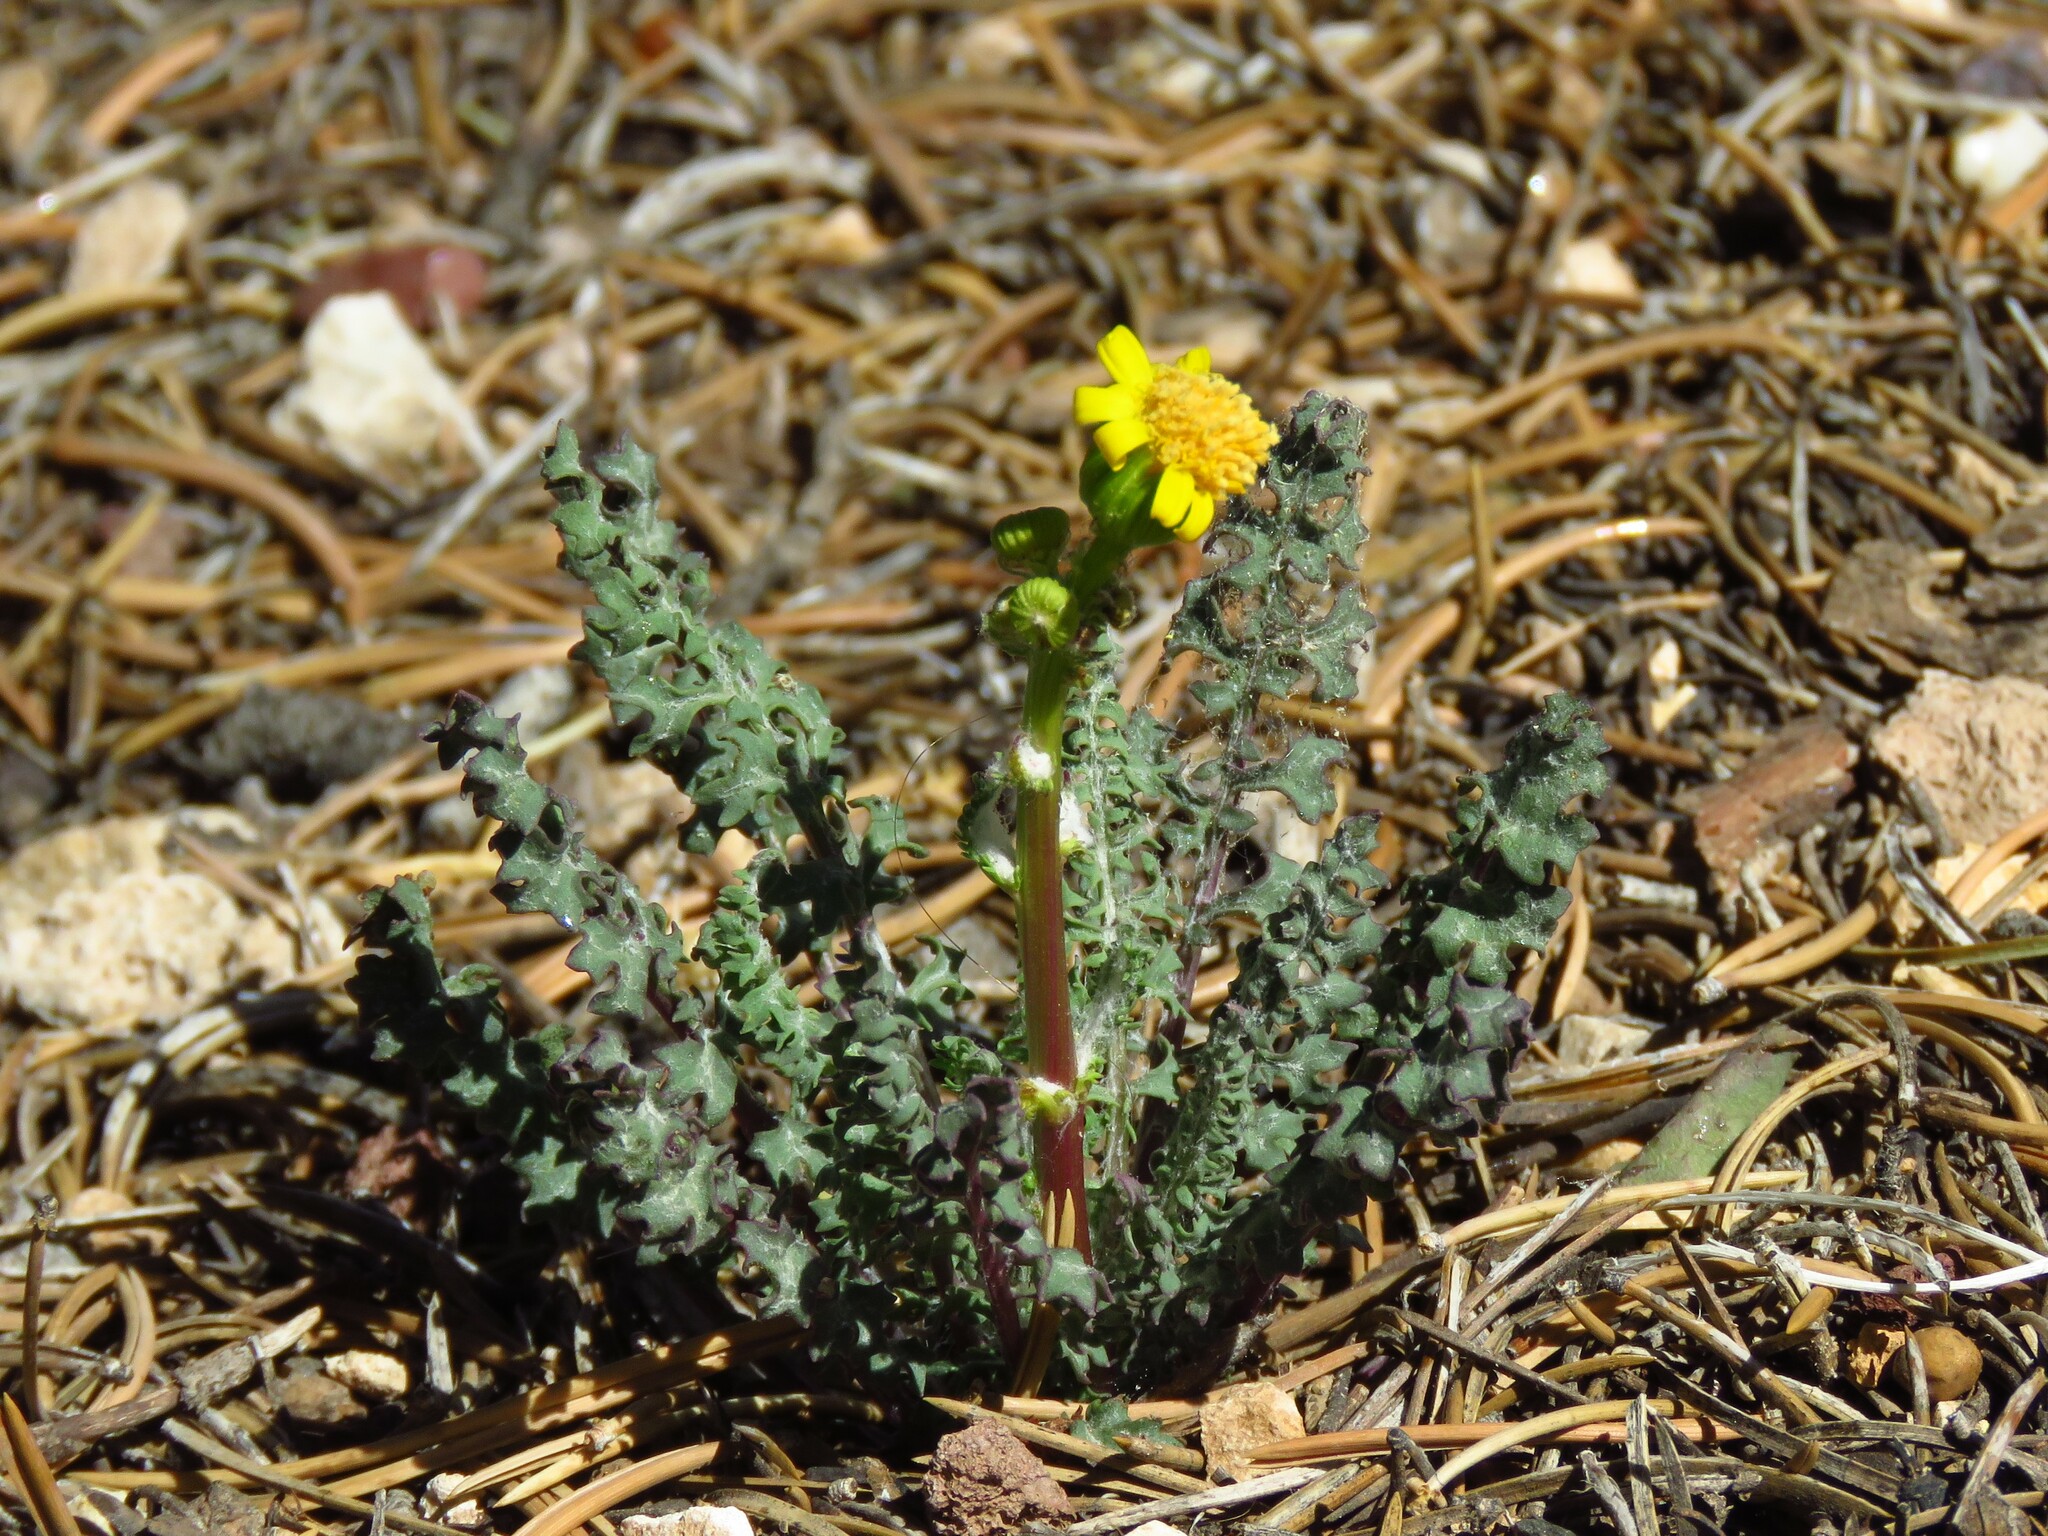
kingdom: Plantae
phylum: Tracheophyta
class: Magnoliopsida
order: Asterales
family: Asteraceae
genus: Packera
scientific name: Packera multilobata
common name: Lobe-leaf groundsel
